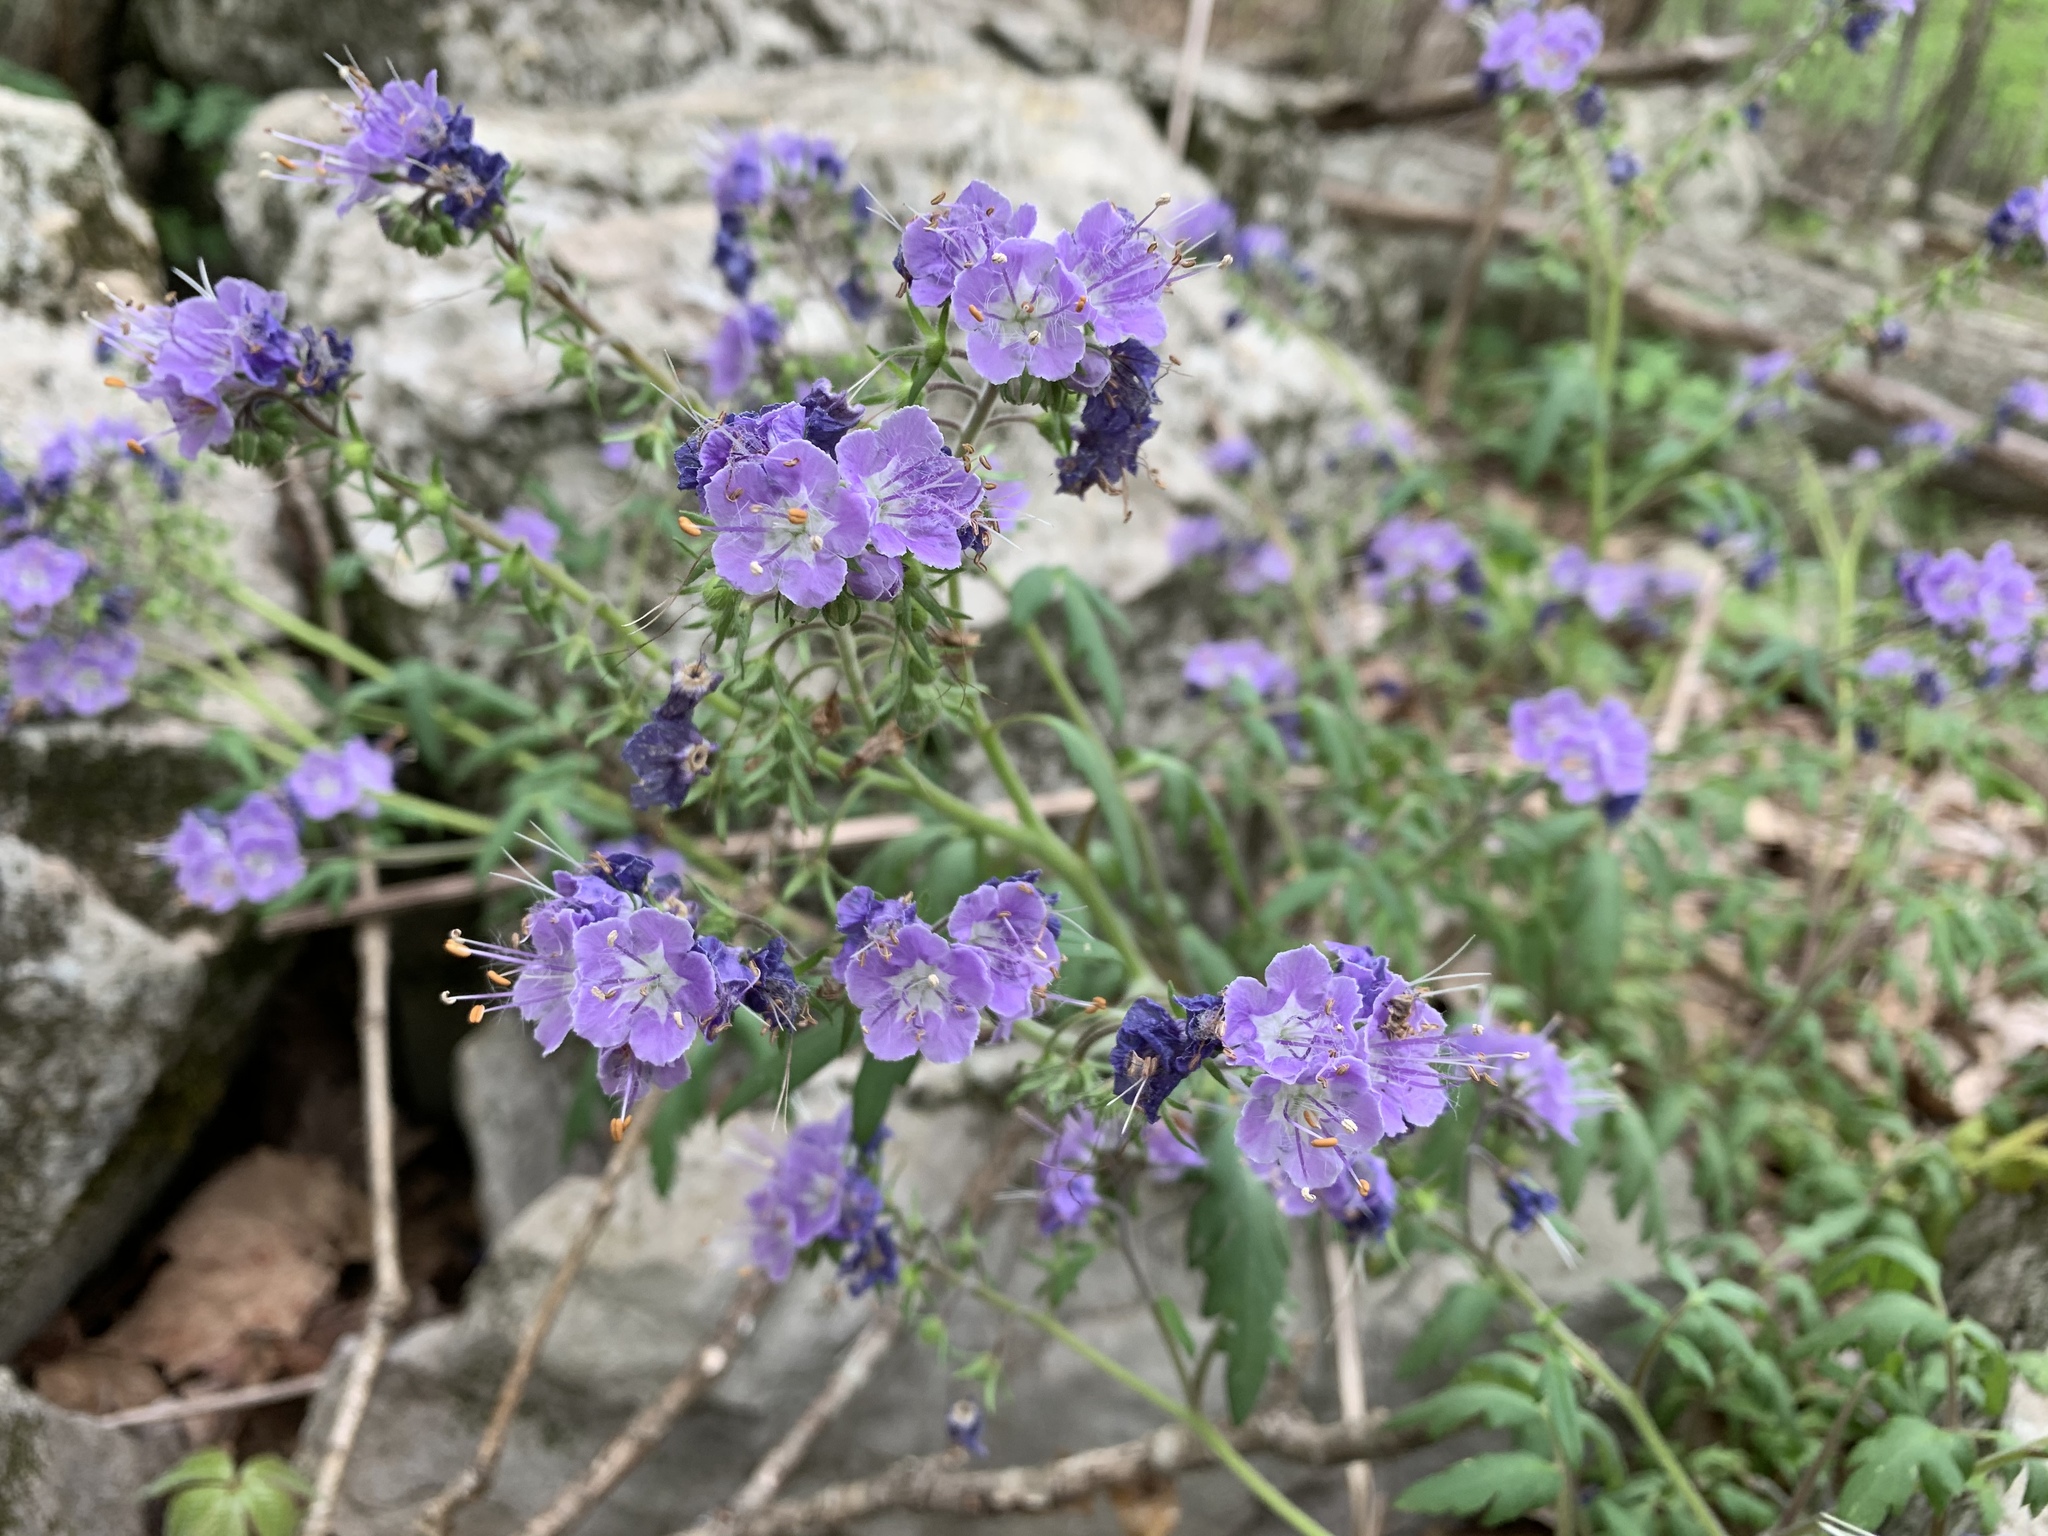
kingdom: Plantae
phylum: Tracheophyta
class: Magnoliopsida
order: Boraginales
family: Hydrophyllaceae
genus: Phacelia
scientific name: Phacelia bipinnatifida
